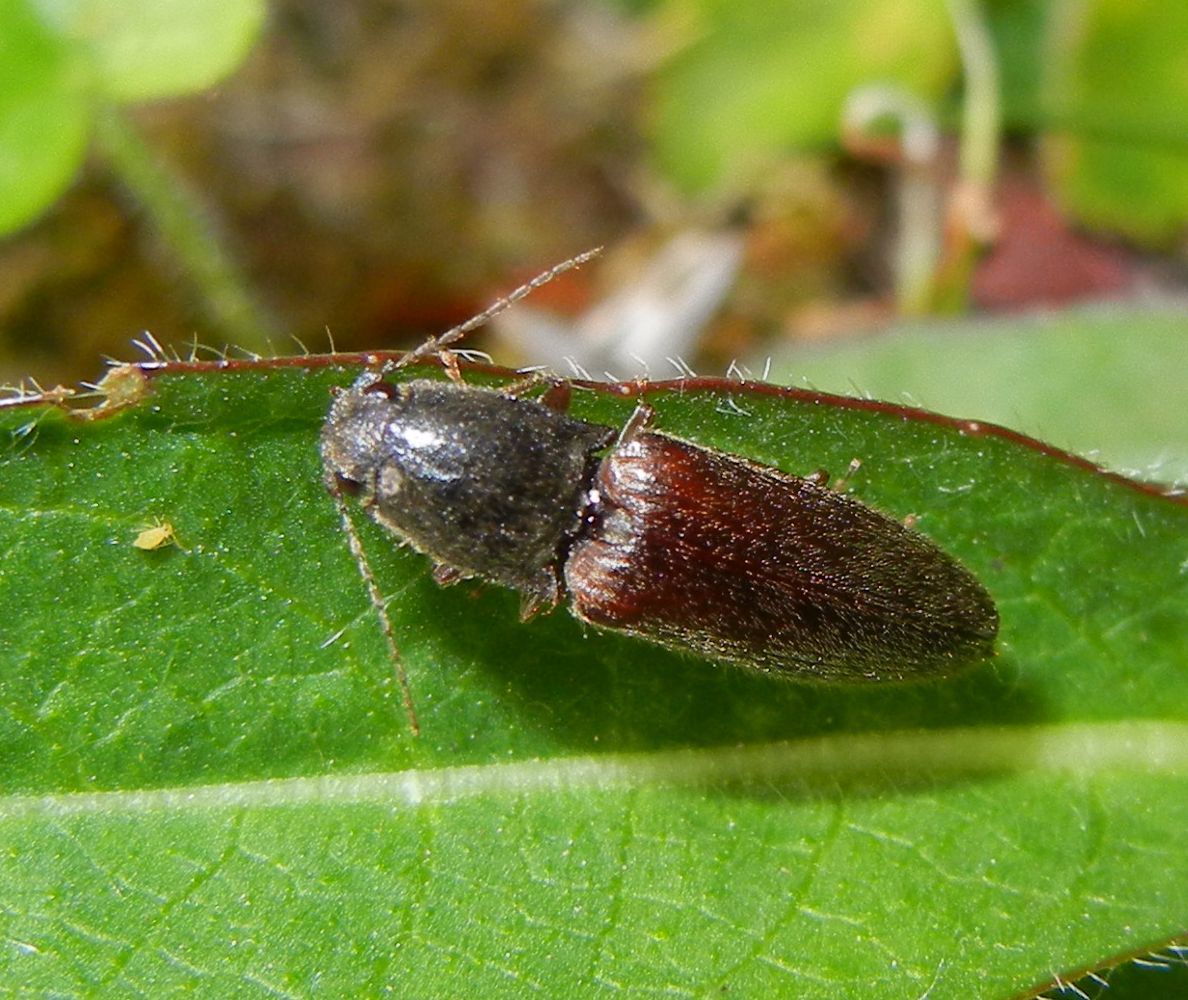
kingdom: Animalia
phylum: Arthropoda
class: Insecta
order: Coleoptera
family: Elateridae
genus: Athous
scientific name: Athous haemorrhoidalis
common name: Red-brown click beetle
